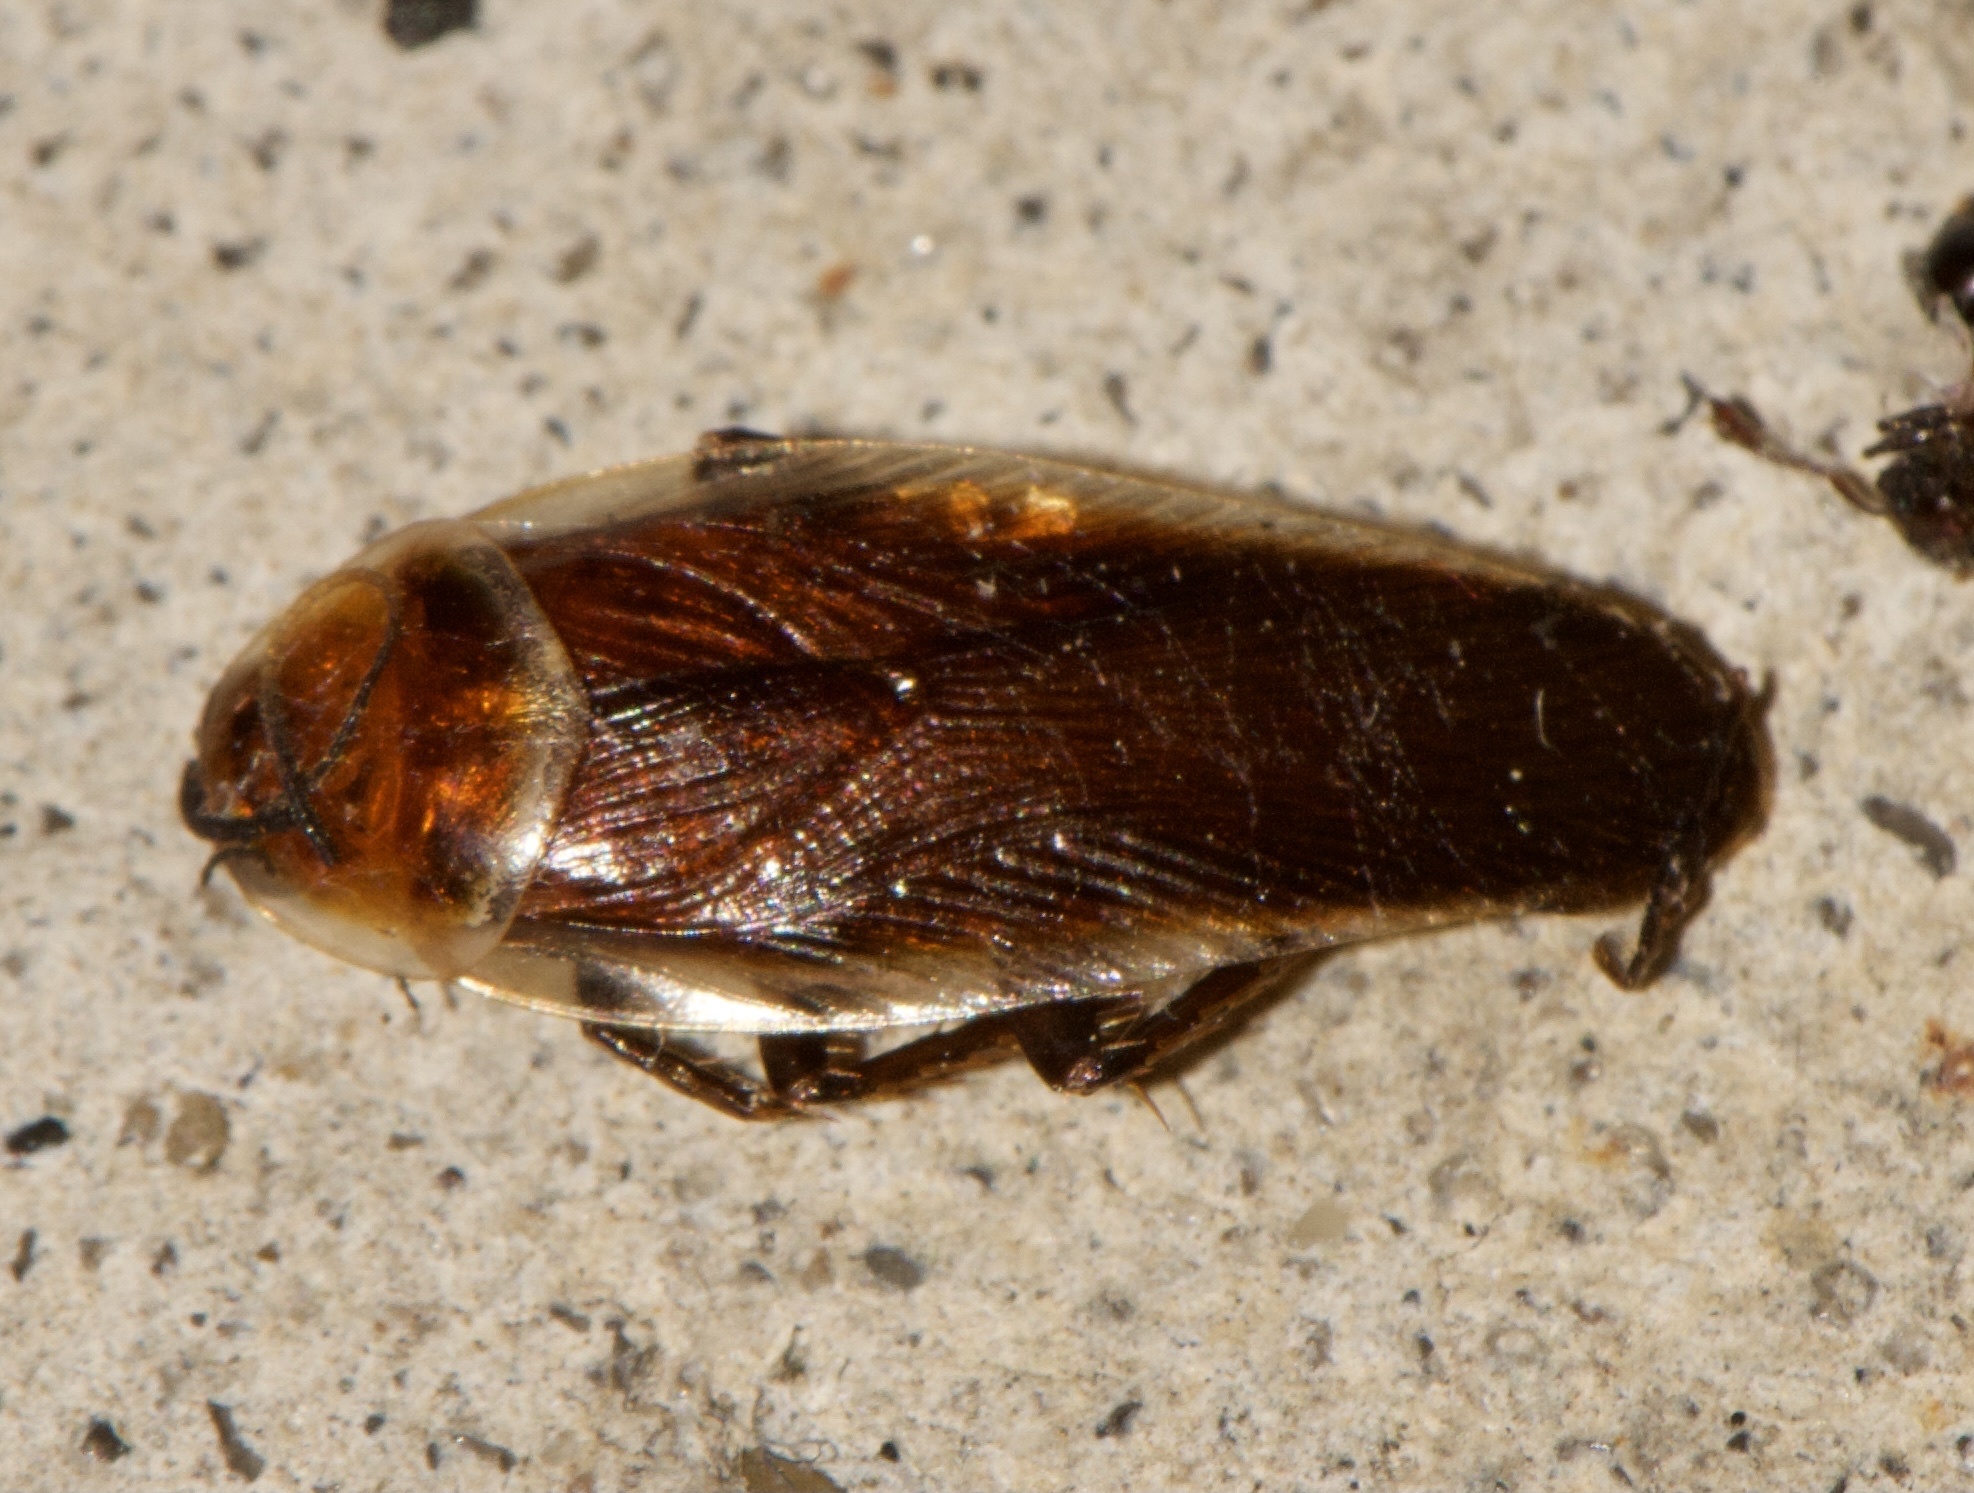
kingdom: Animalia
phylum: Arthropoda
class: Insecta
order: Blattodea
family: Ectobiidae
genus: Pseudomops
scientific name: Pseudomops septentrionalis
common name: Pale-bordered field cockroach
